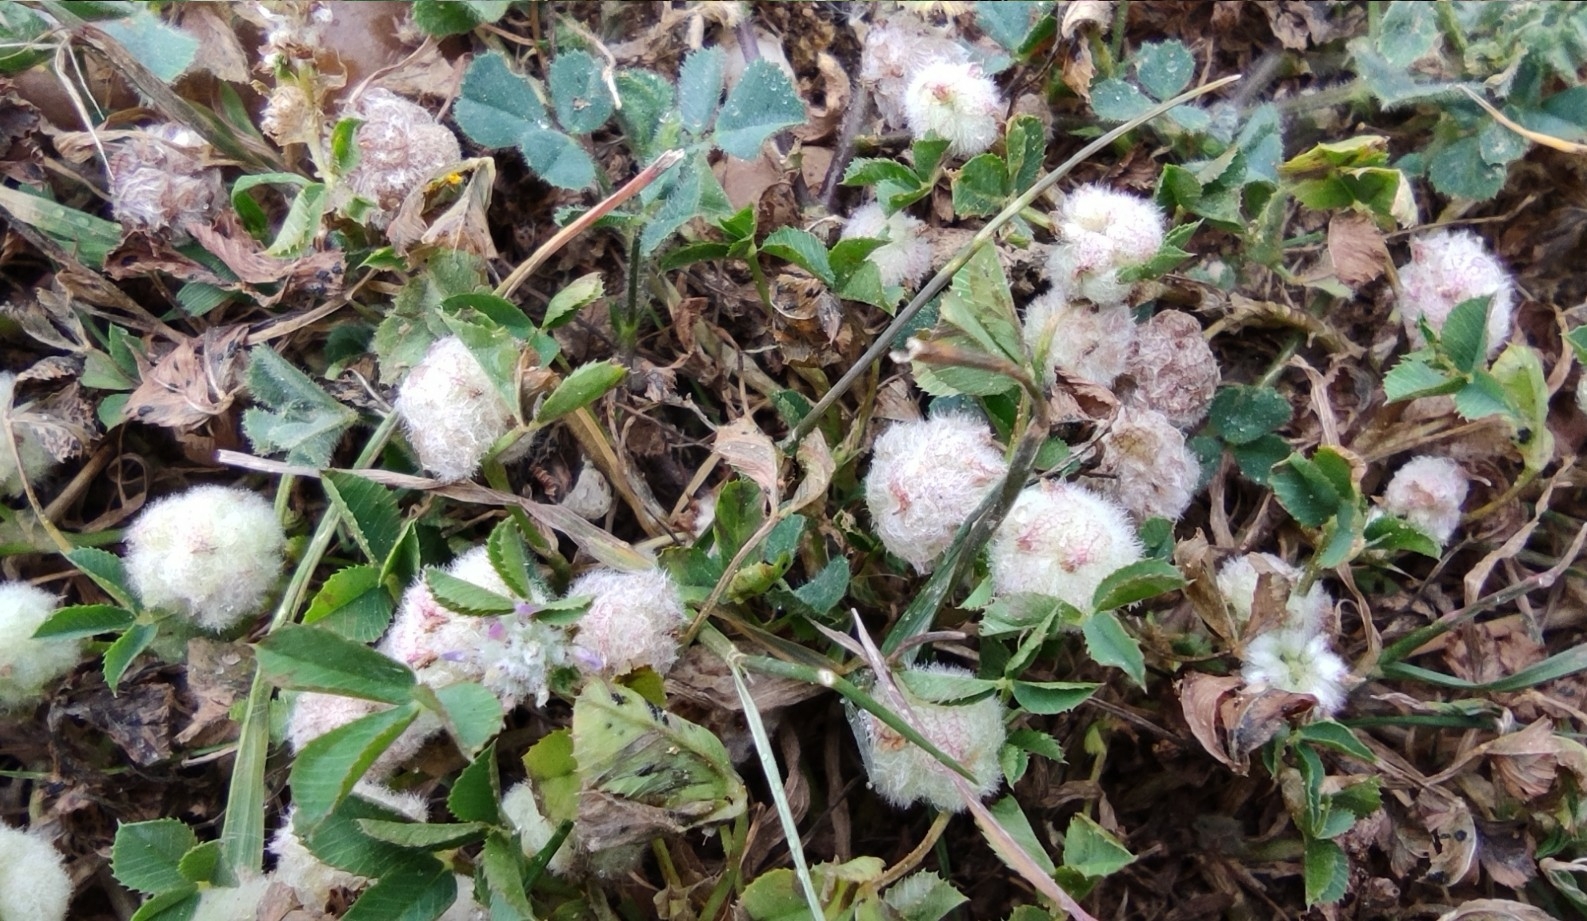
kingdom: Plantae
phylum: Tracheophyta
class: Magnoliopsida
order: Fabales
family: Fabaceae
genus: Trifolium
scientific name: Trifolium tomentosum
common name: Woolly clover
